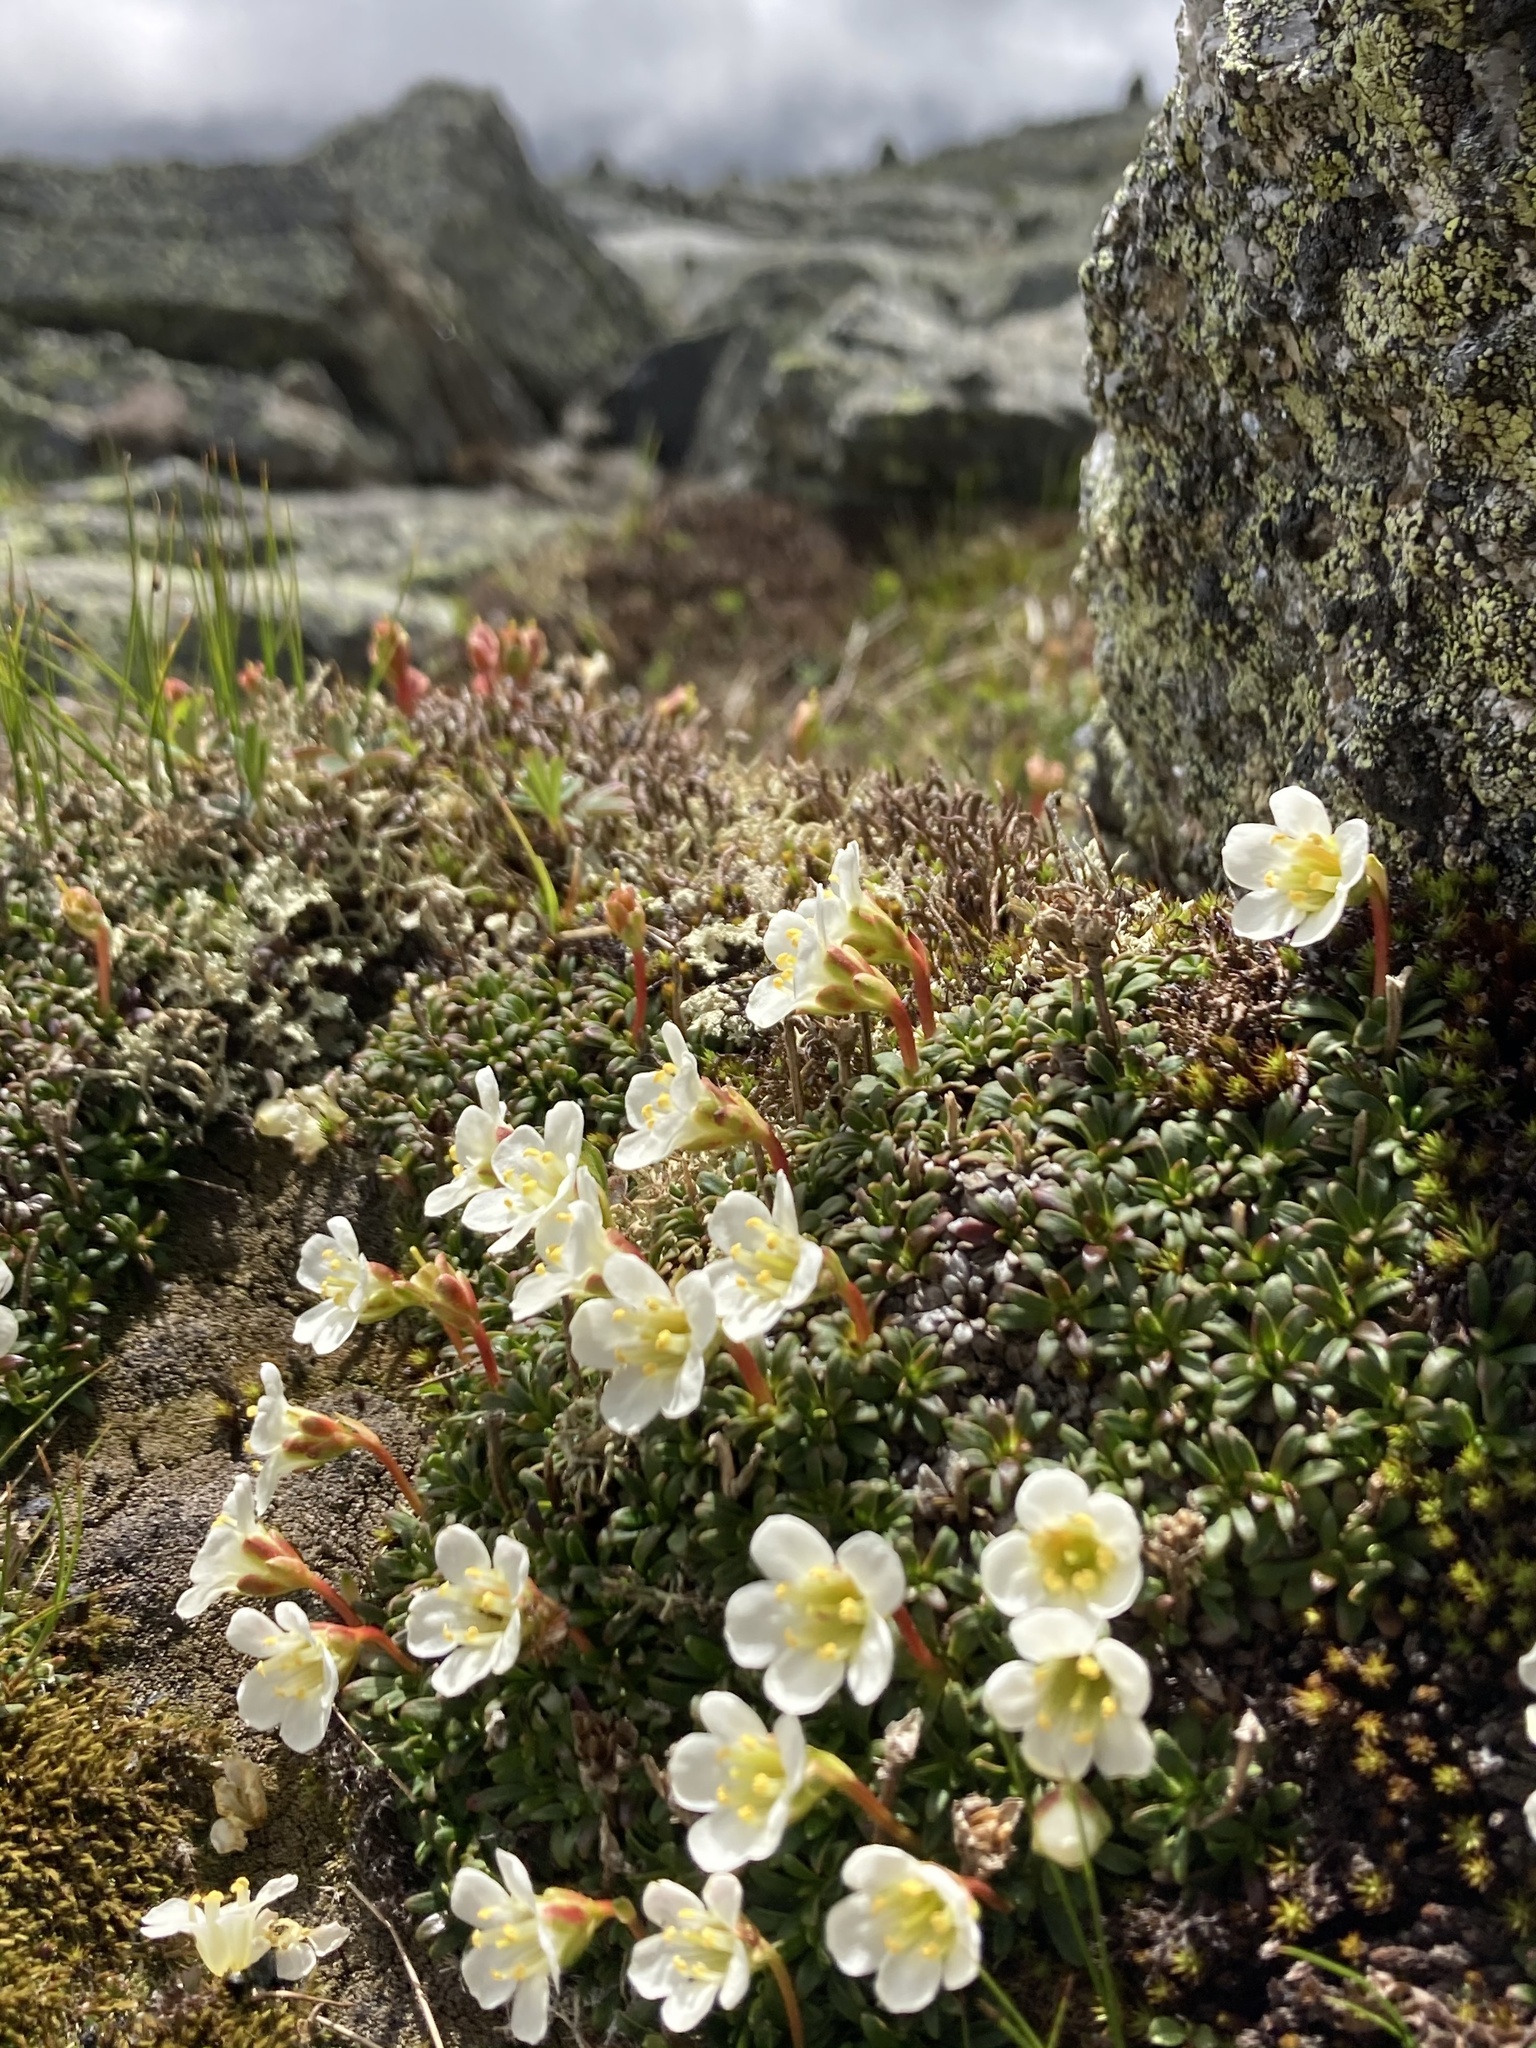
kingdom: Plantae
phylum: Tracheophyta
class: Magnoliopsida
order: Ericales
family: Diapensiaceae
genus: Diapensia
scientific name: Diapensia lapponica
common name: Diapensia
